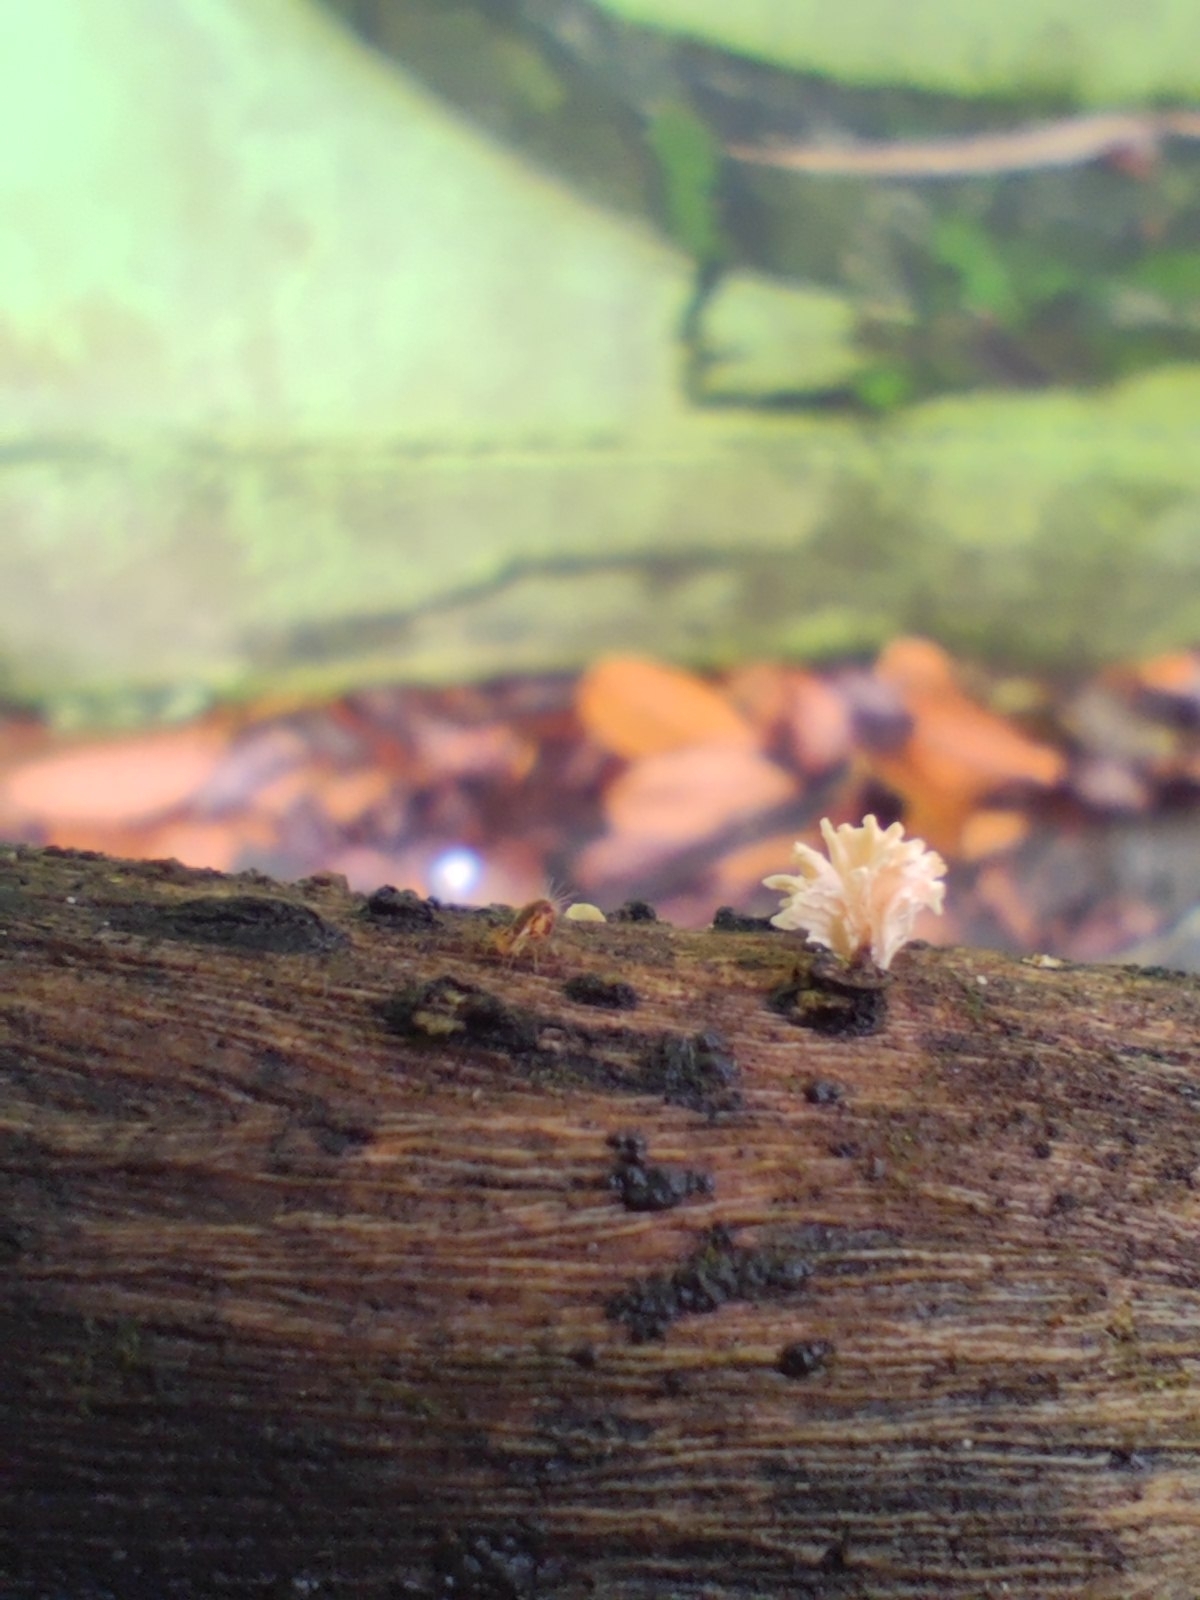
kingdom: Fungi
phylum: Ascomycota
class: Sordariomycetes
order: Xylariales
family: Xylariaceae
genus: Xylaria
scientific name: Xylaria cubensis
